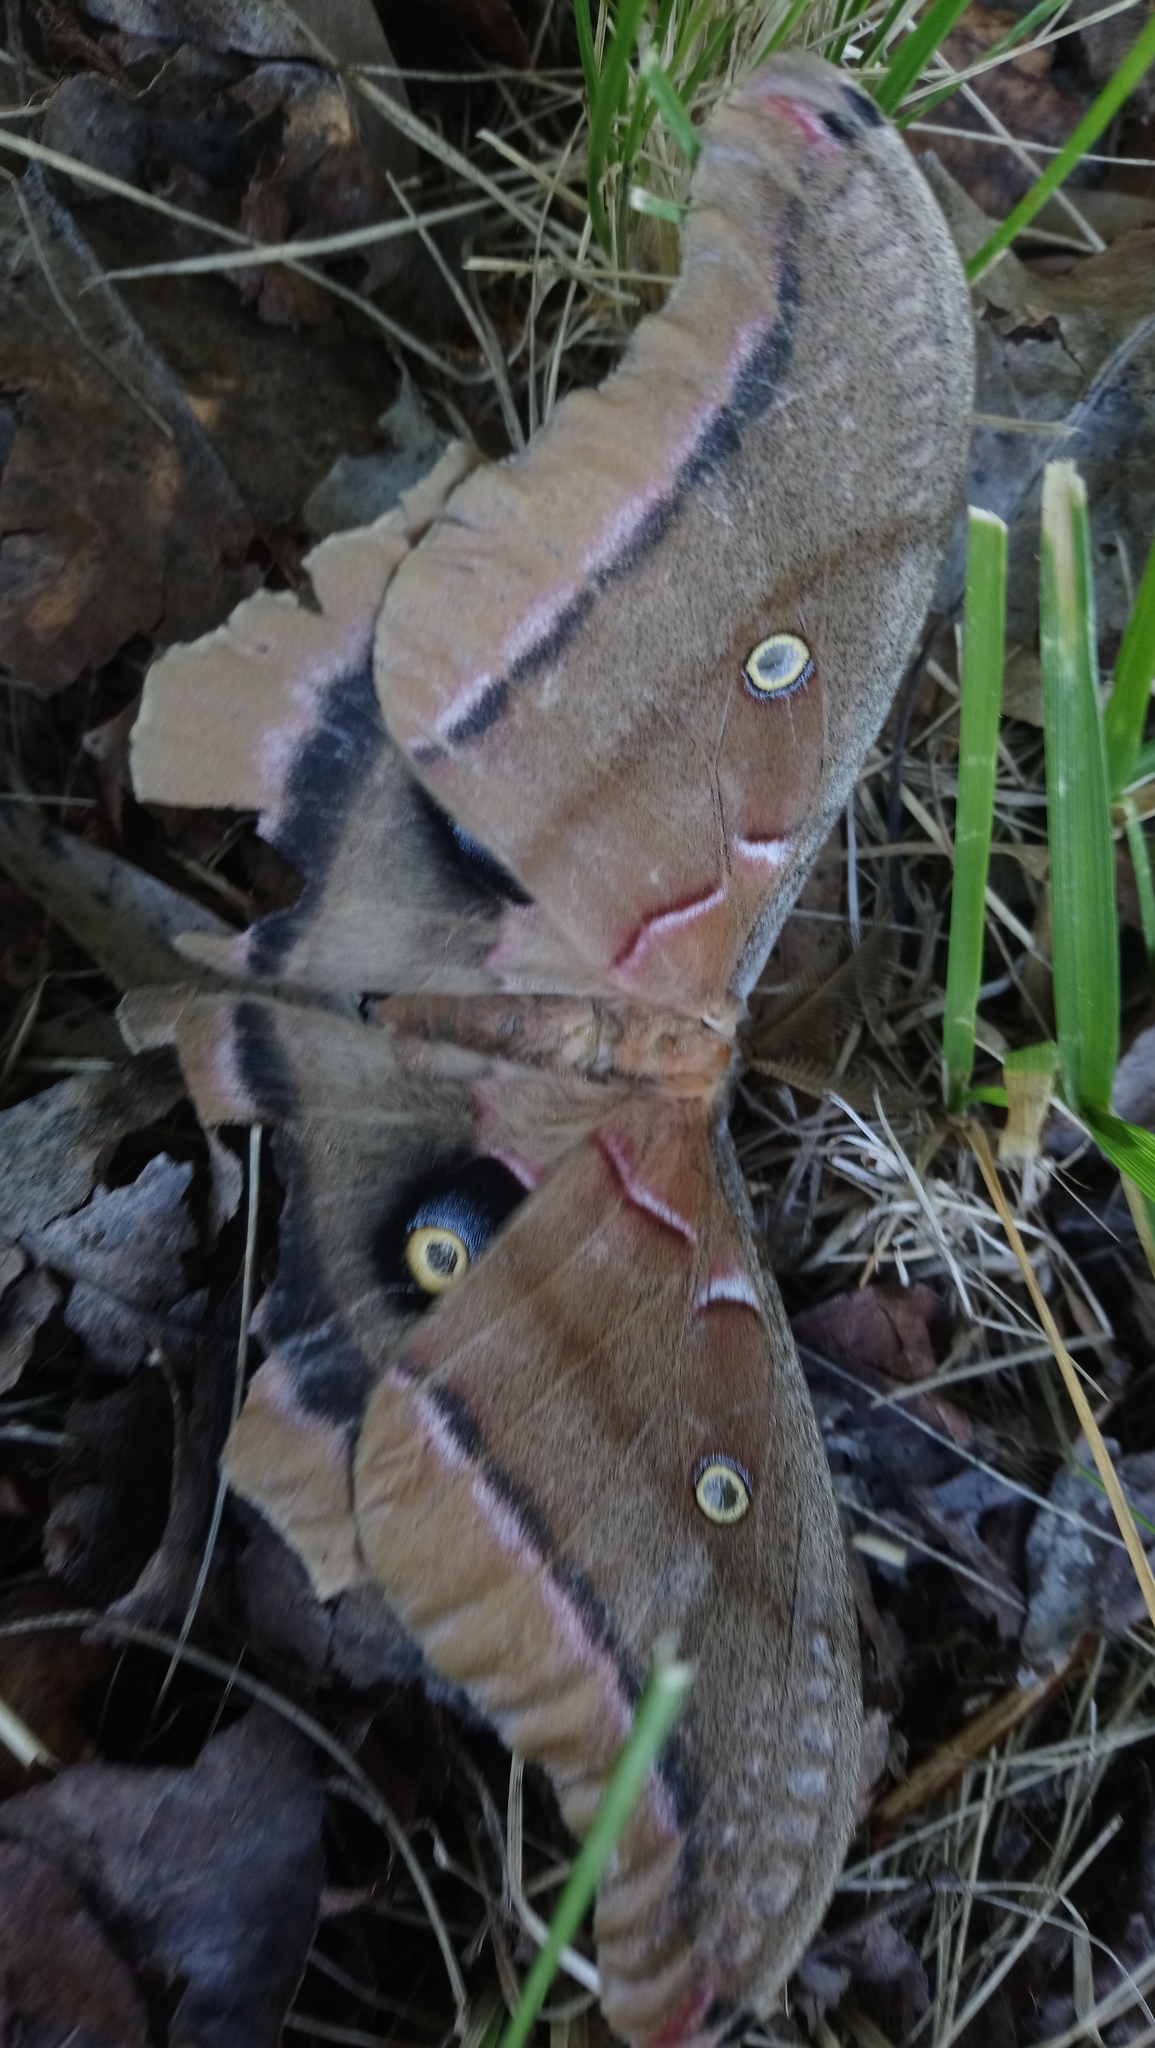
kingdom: Animalia
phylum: Arthropoda
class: Insecta
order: Lepidoptera
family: Saturniidae
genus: Antheraea
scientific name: Antheraea polyphemus
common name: Polyphemus moth
